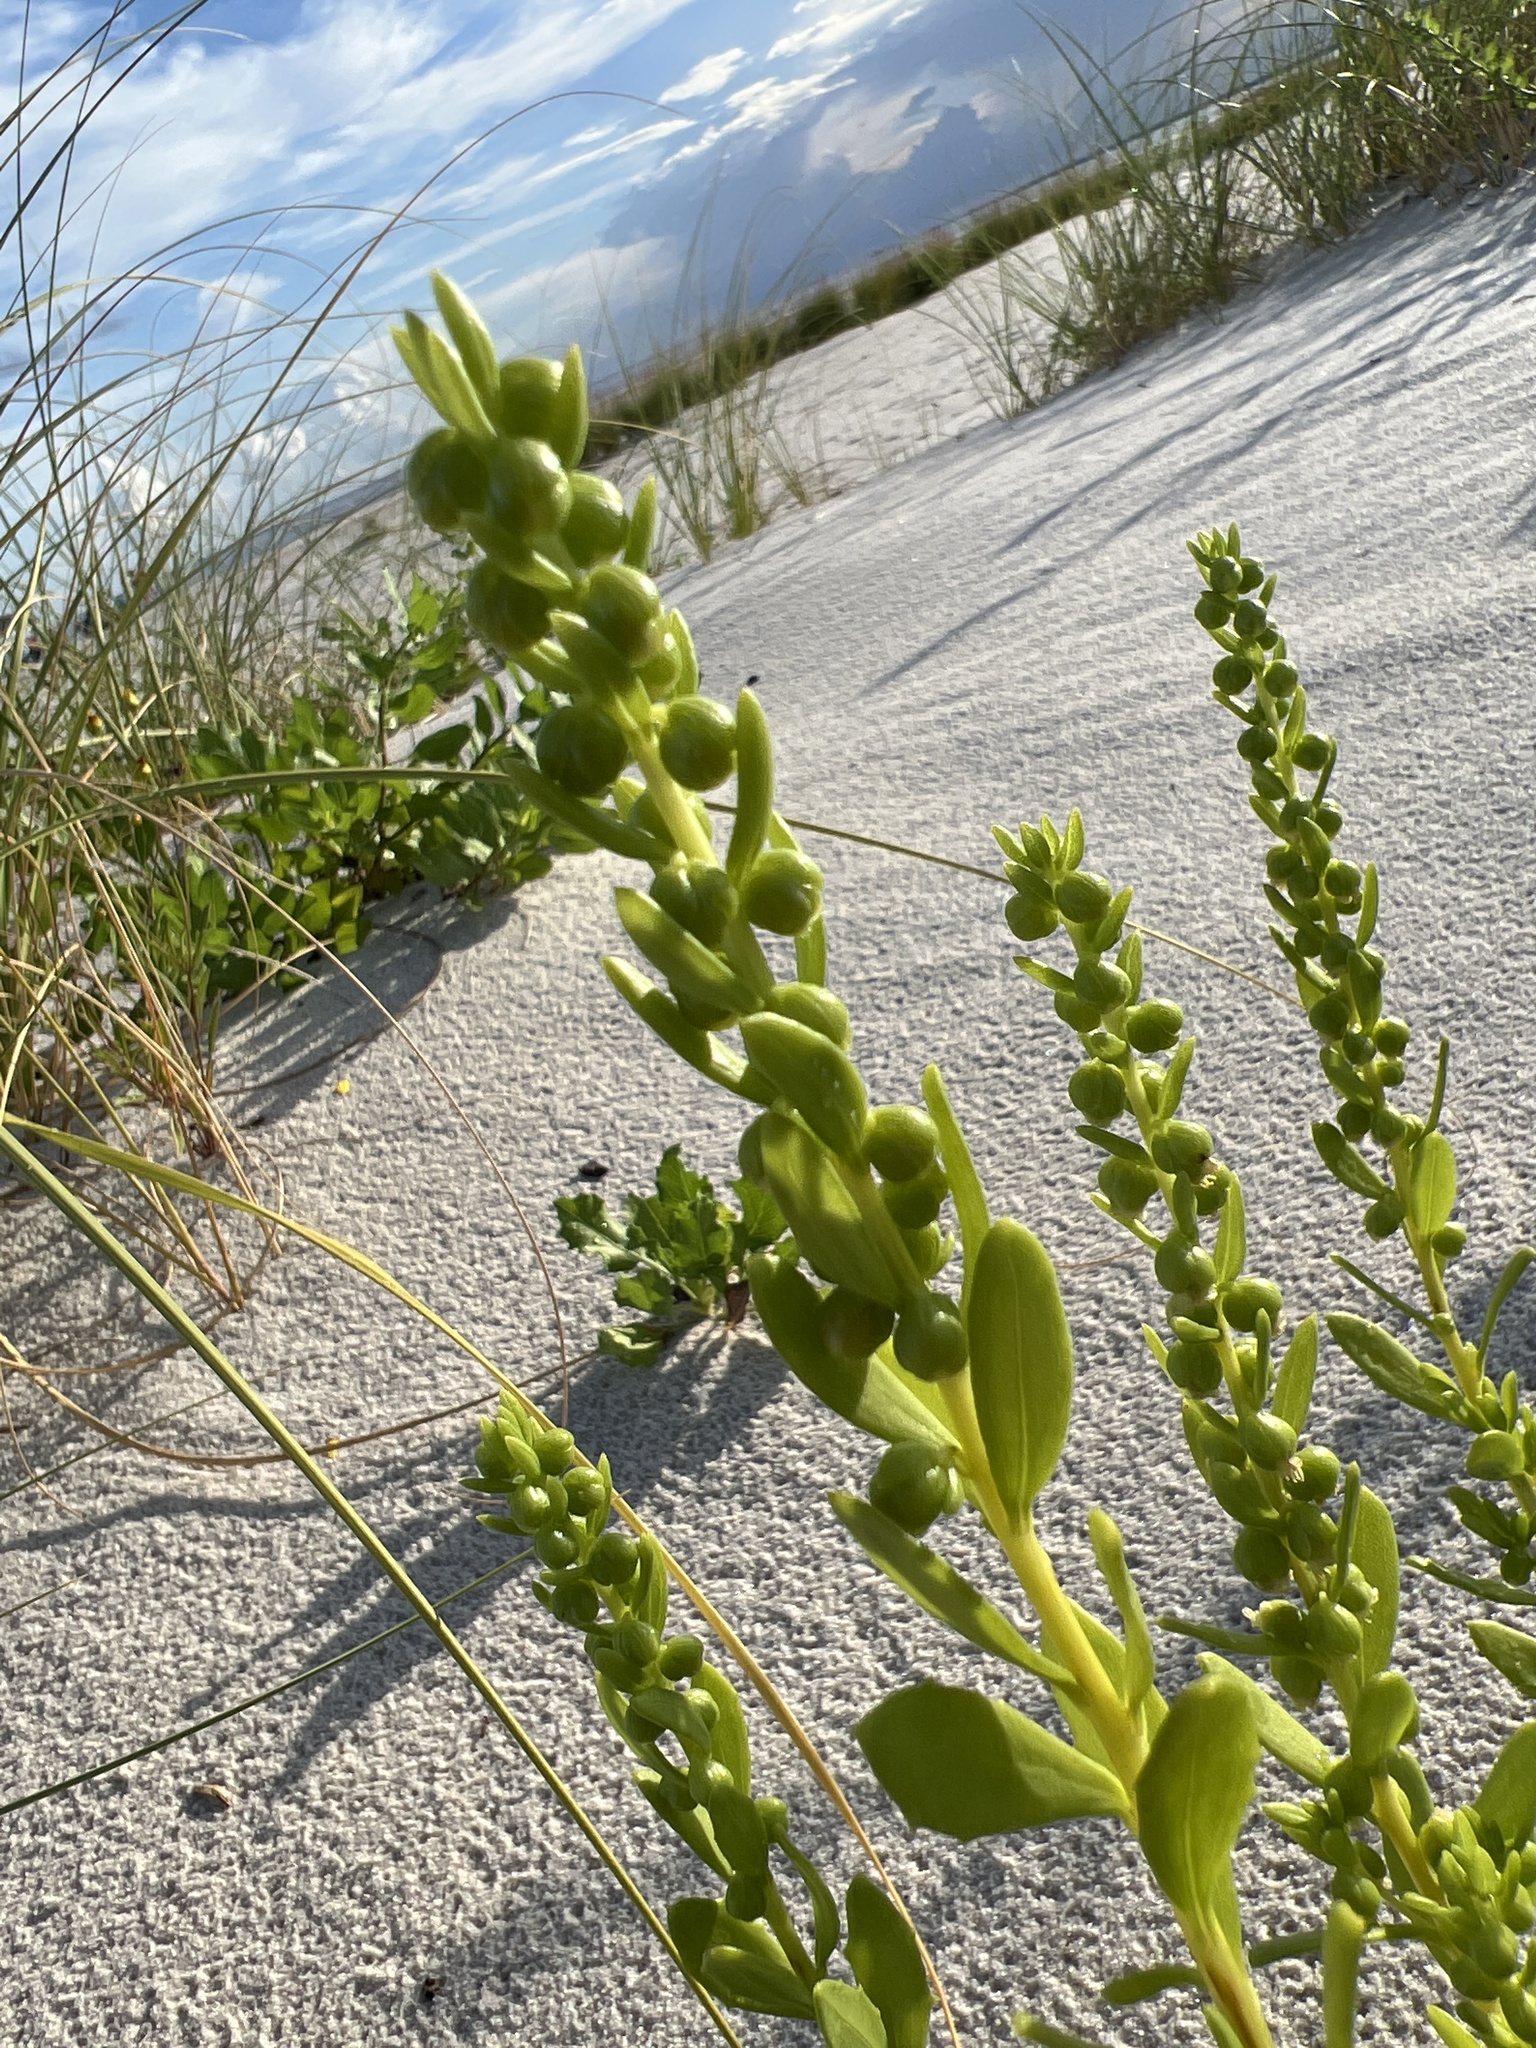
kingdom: Plantae
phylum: Tracheophyta
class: Magnoliopsida
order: Asterales
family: Asteraceae
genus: Iva
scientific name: Iva imbricata
